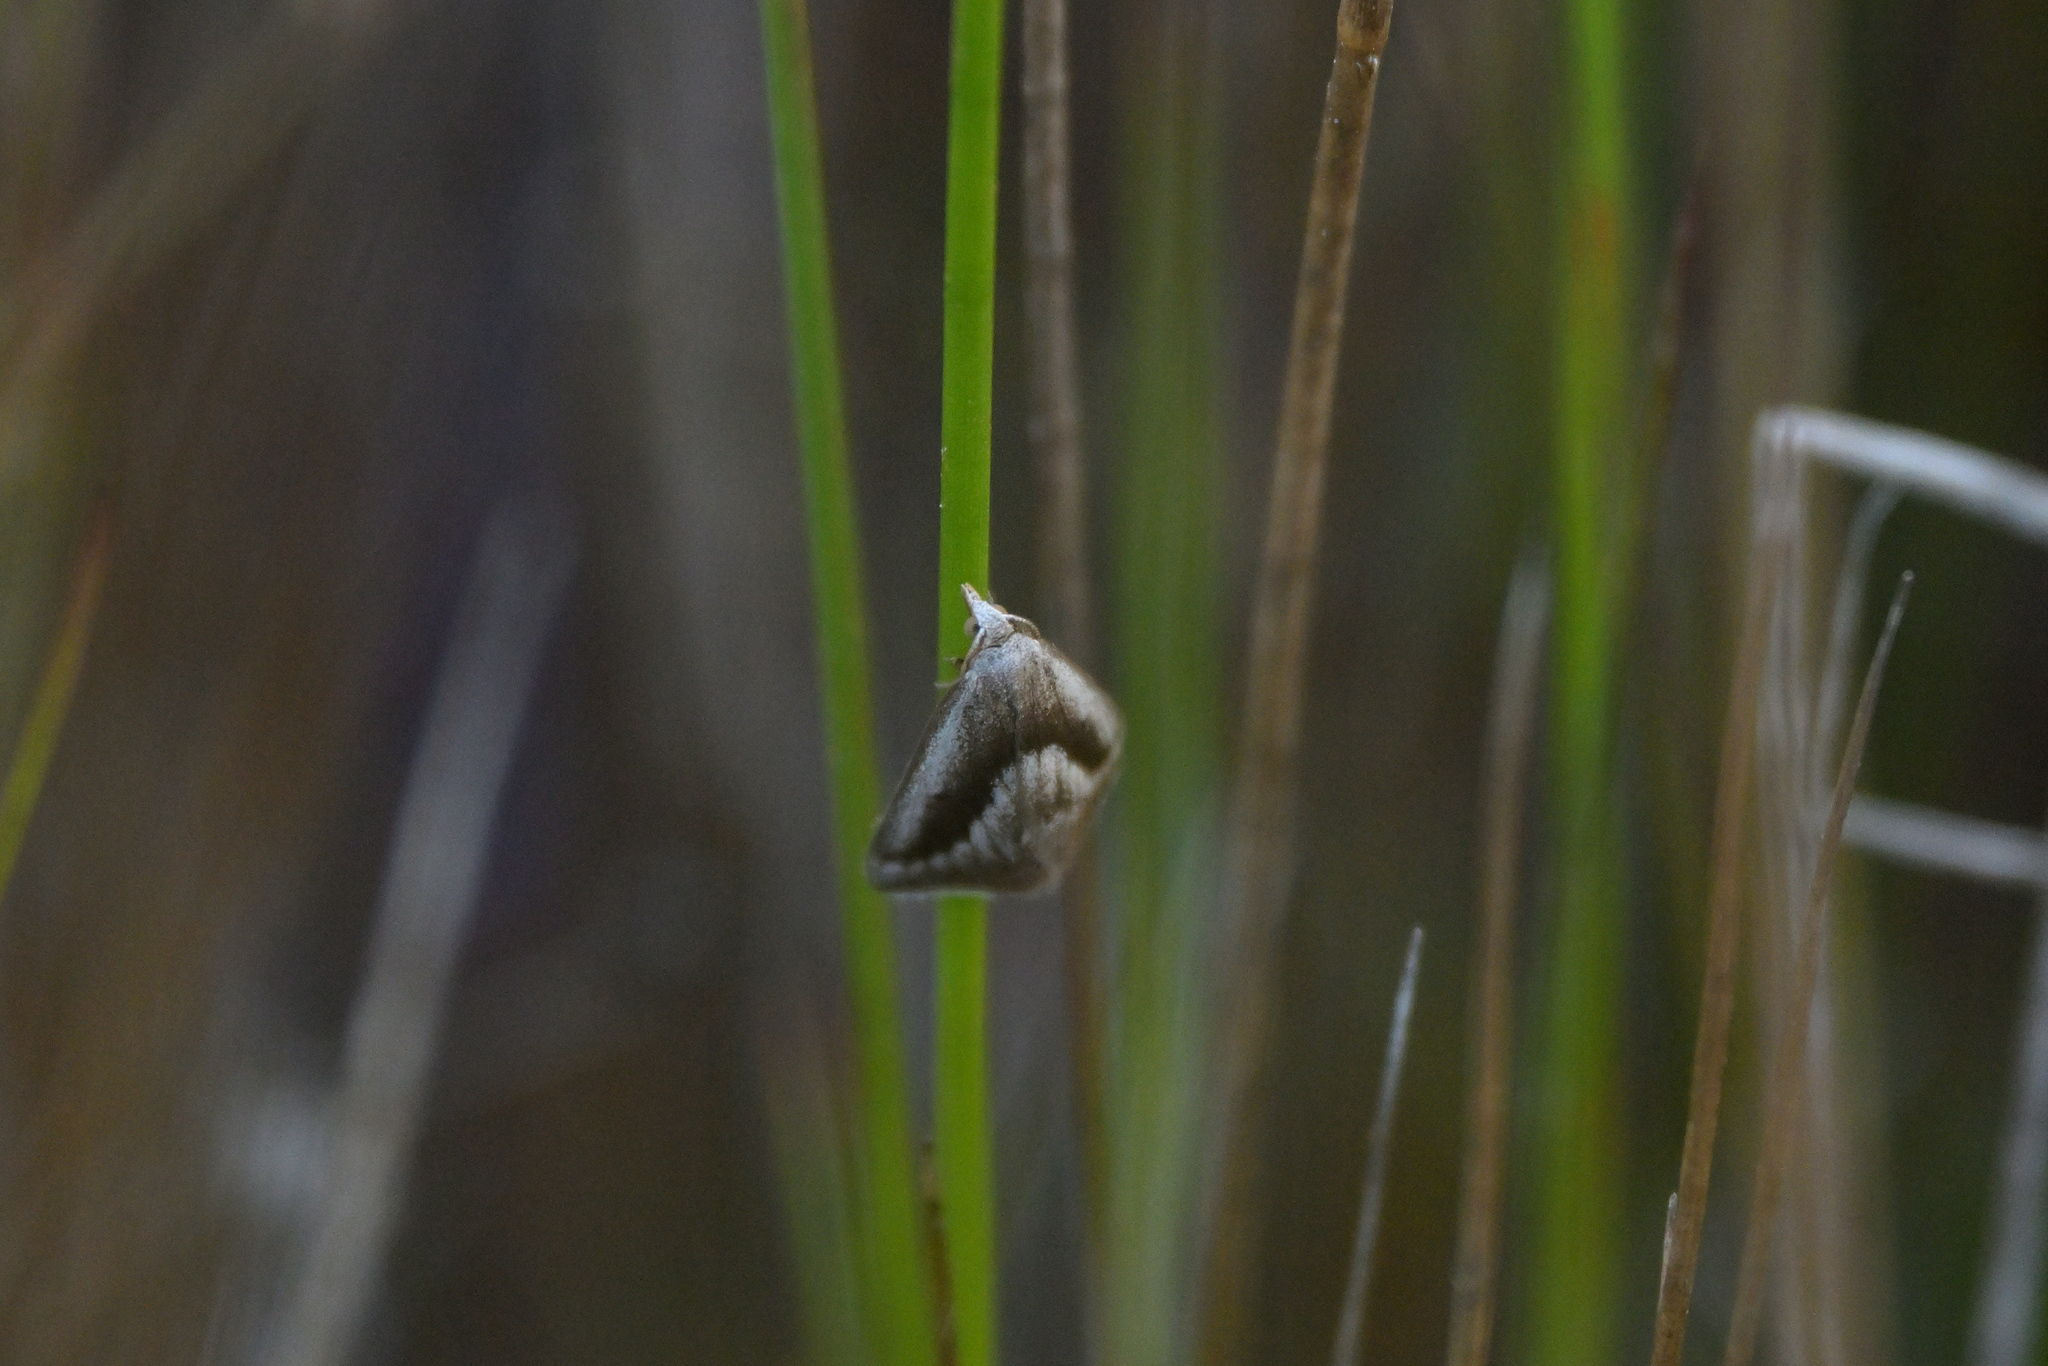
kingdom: Animalia
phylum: Arthropoda
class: Insecta
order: Lepidoptera
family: Geometridae
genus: Adeixis
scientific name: Adeixis griseata
